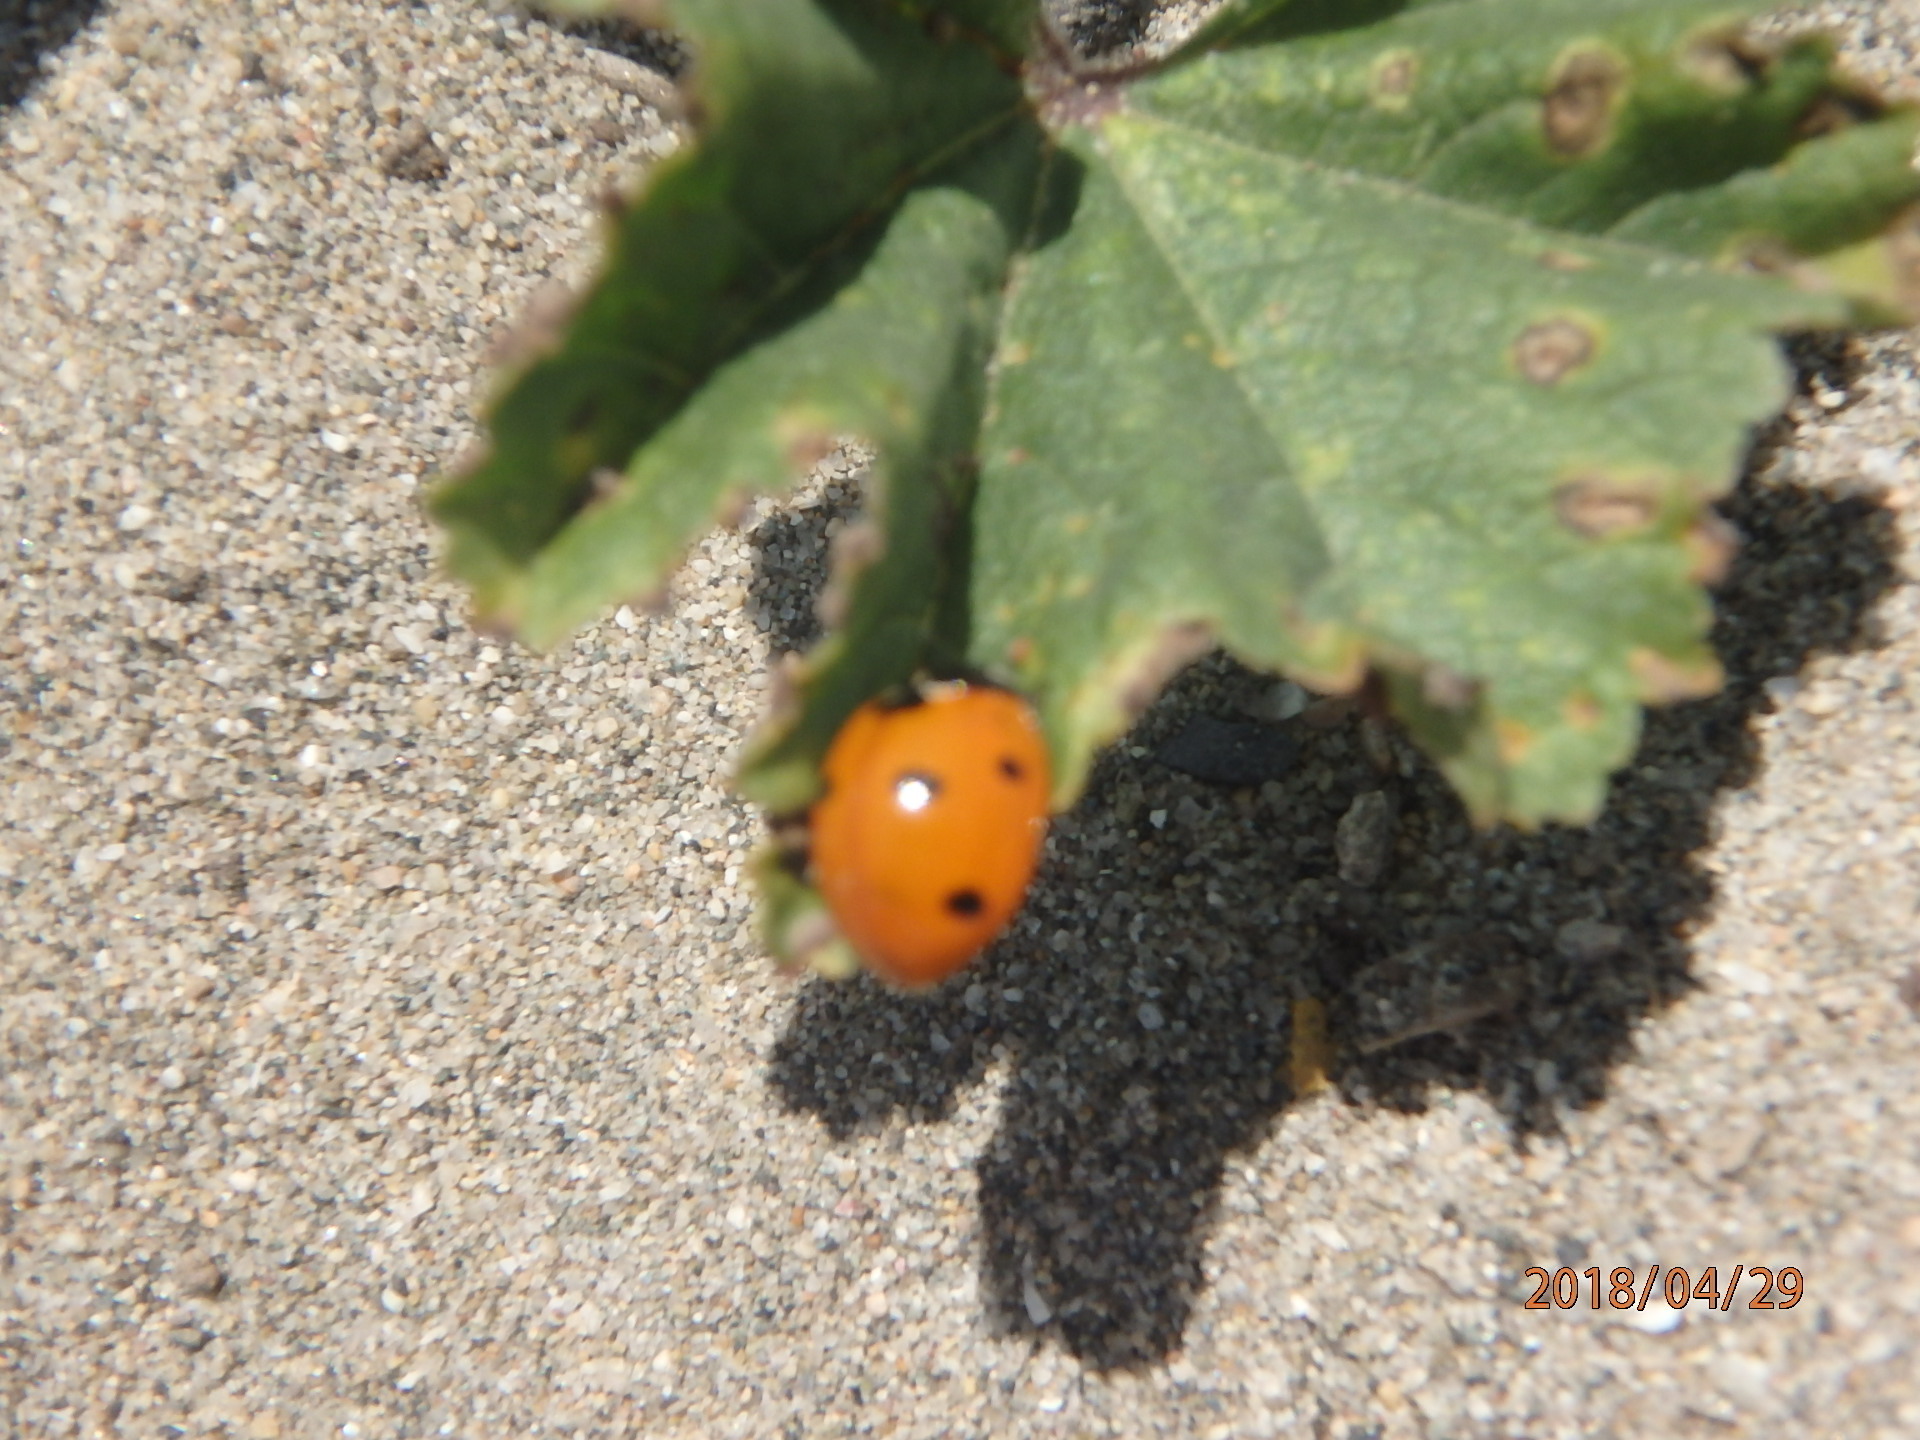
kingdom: Animalia
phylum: Arthropoda
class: Insecta
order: Coleoptera
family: Coccinellidae
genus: Coccinella
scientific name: Coccinella septempunctata
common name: Sevenspotted lady beetle
